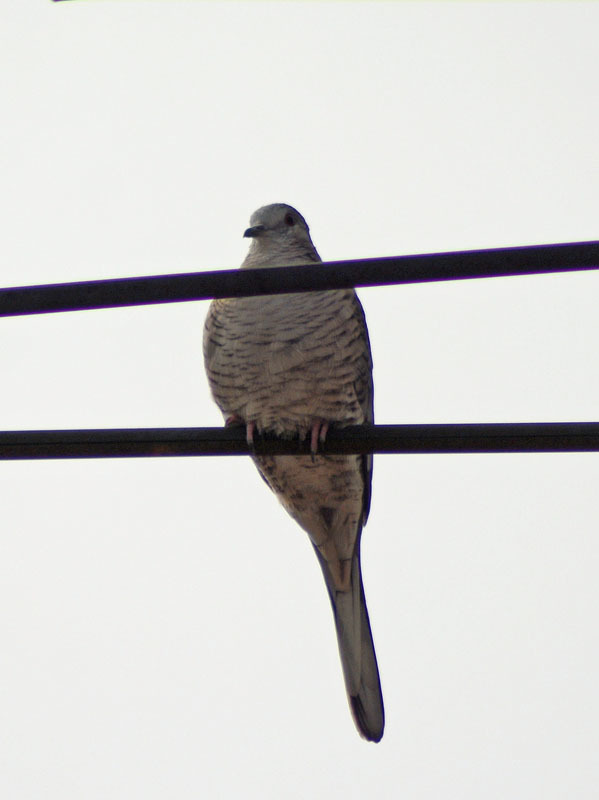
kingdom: Animalia
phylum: Chordata
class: Aves
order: Columbiformes
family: Columbidae
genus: Columbina
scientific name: Columbina inca
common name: Inca dove
